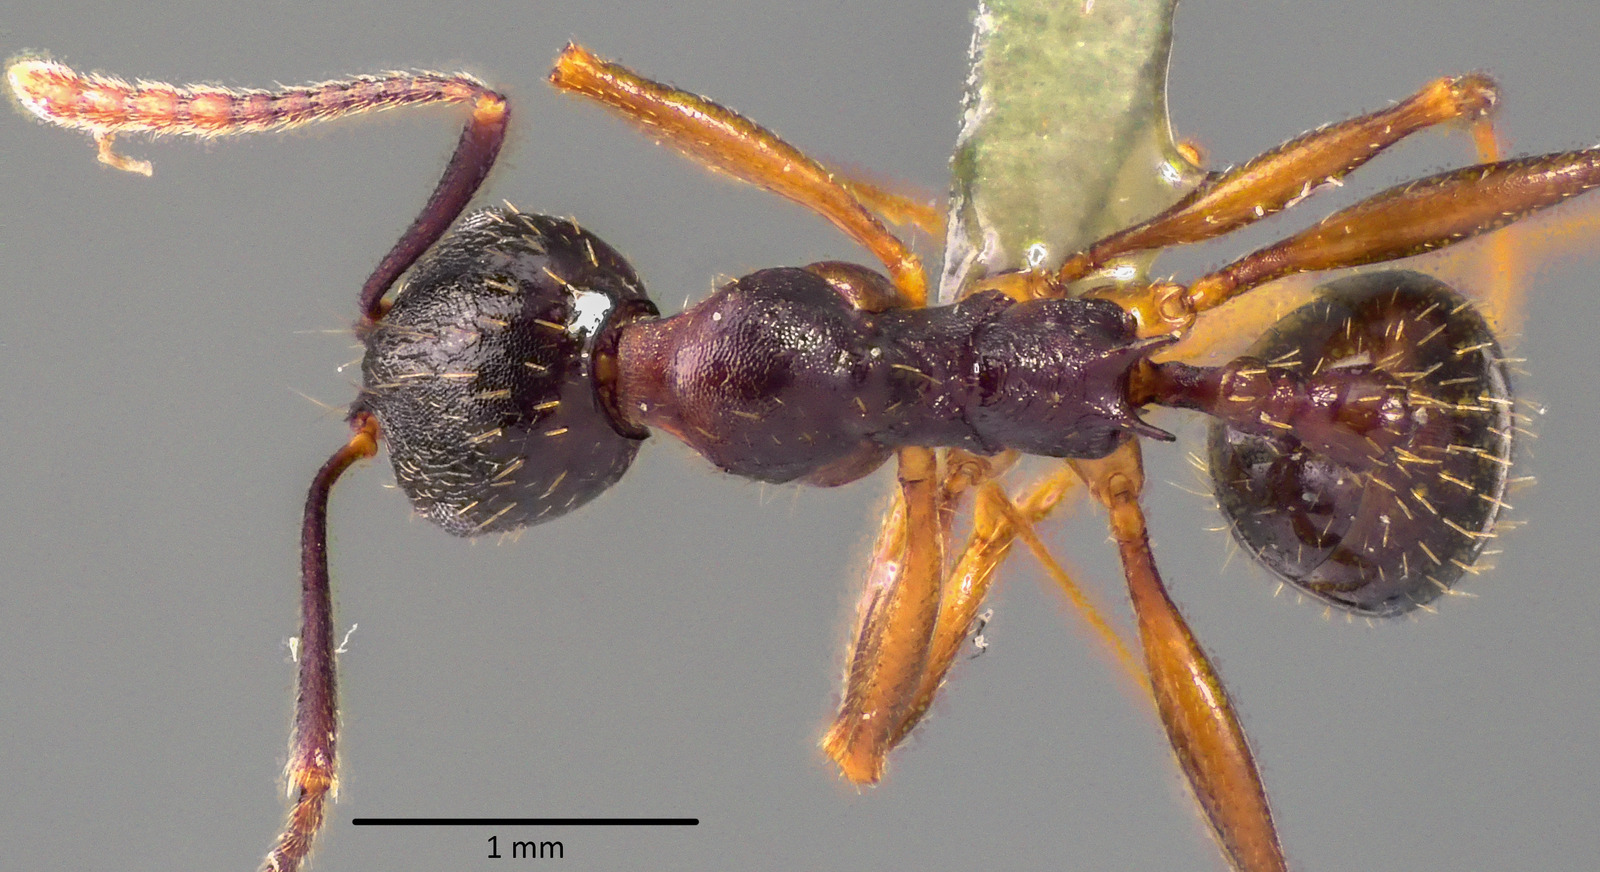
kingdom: Animalia
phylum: Arthropoda
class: Insecta
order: Hymenoptera
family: Formicidae
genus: Aphaenogaster
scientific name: Aphaenogaster picea
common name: Pitch-black collared ant
